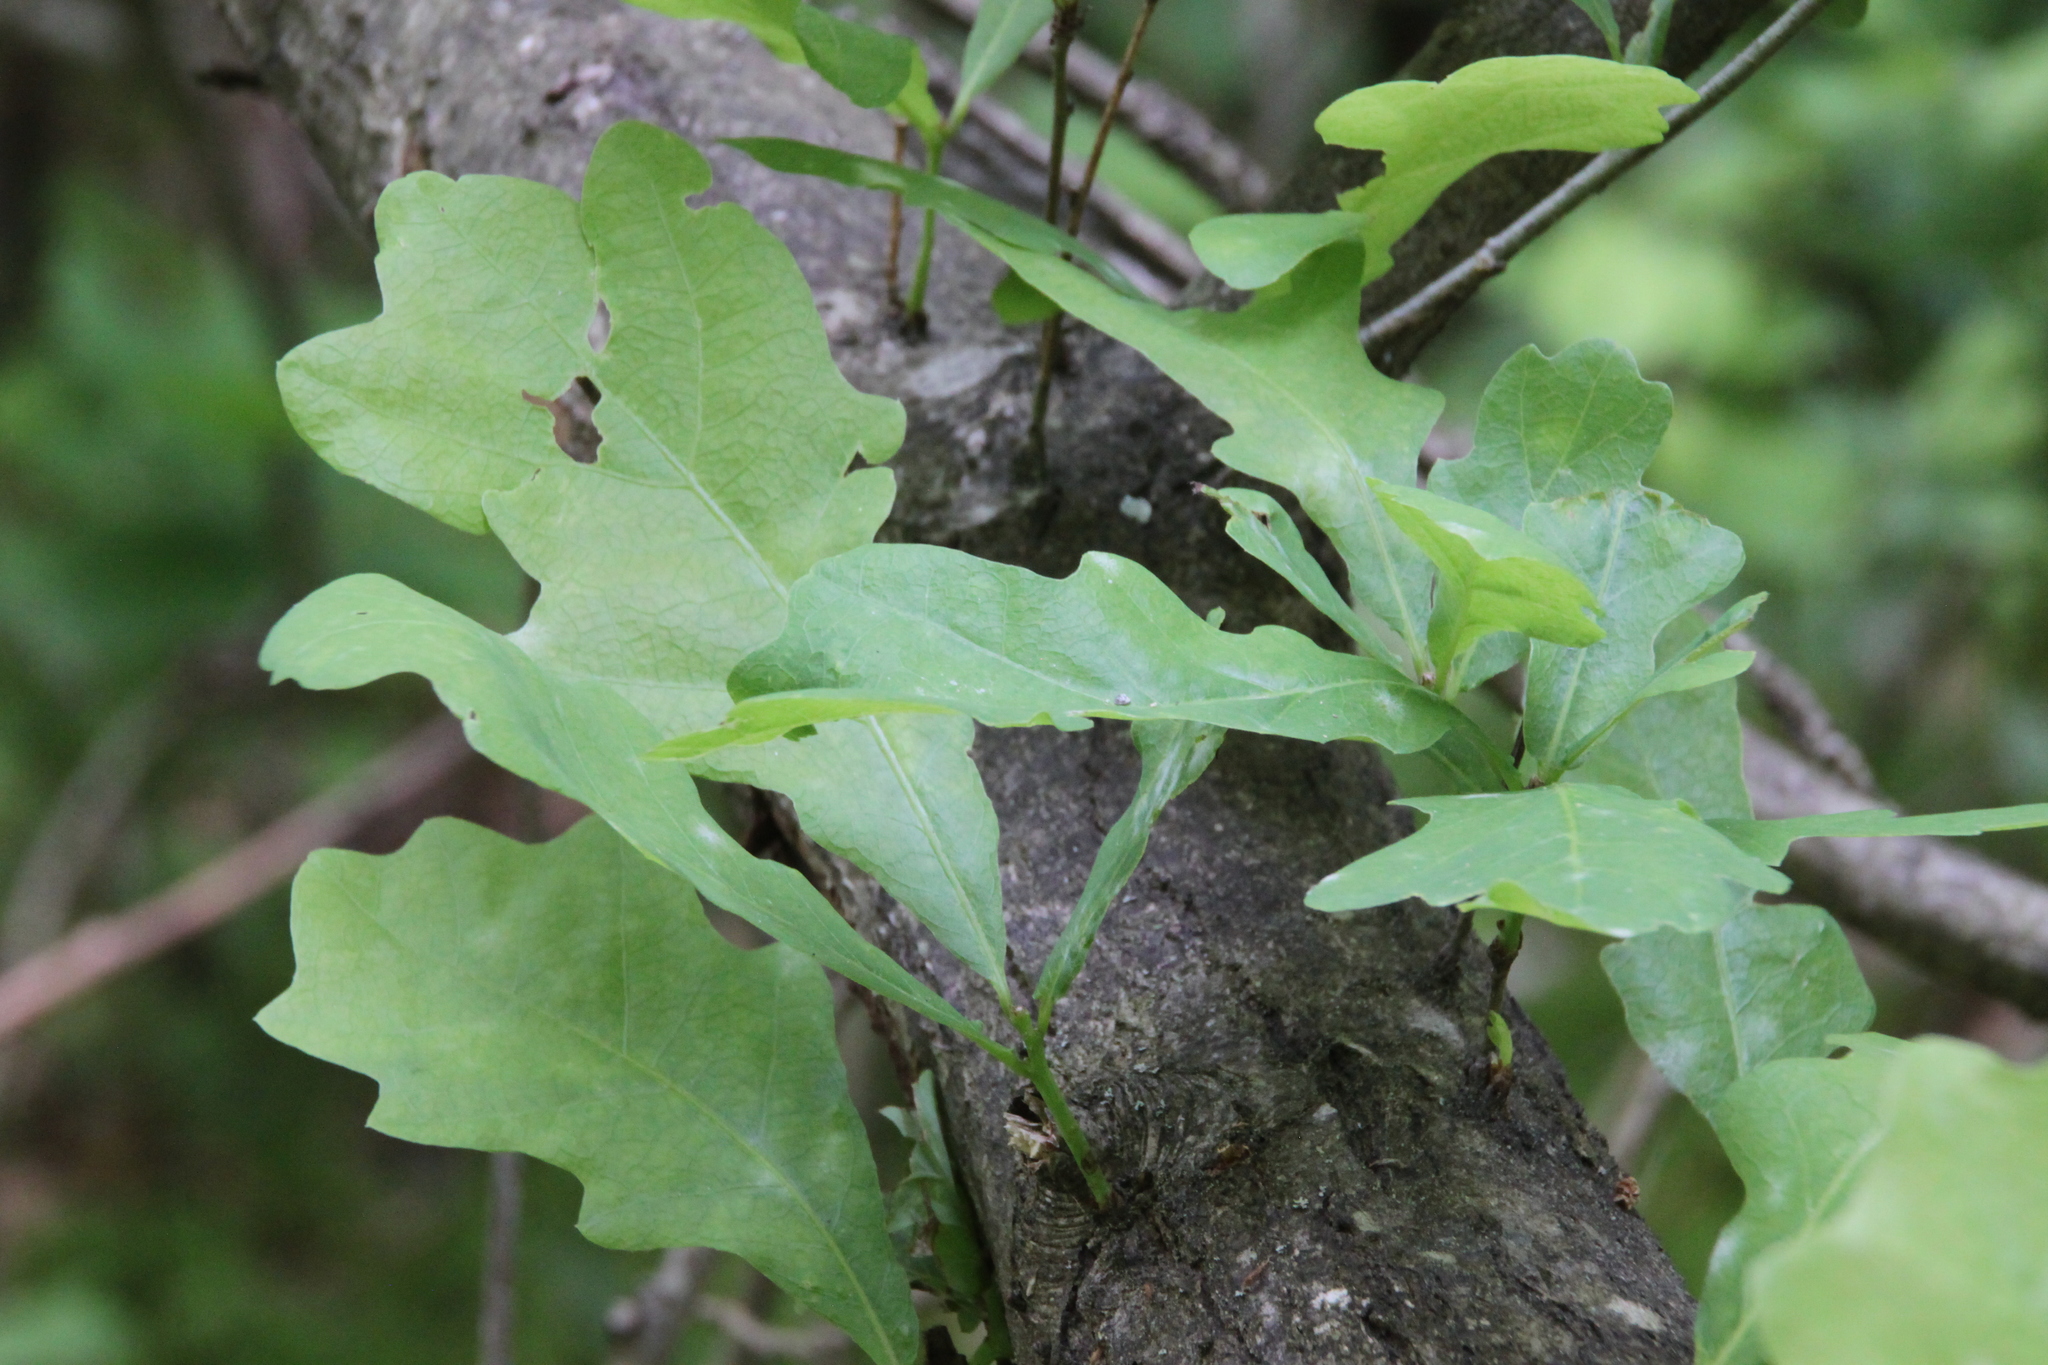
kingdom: Plantae
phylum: Tracheophyta
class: Magnoliopsida
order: Fagales
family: Fagaceae
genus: Quercus
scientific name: Quercus robur
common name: Pedunculate oak
